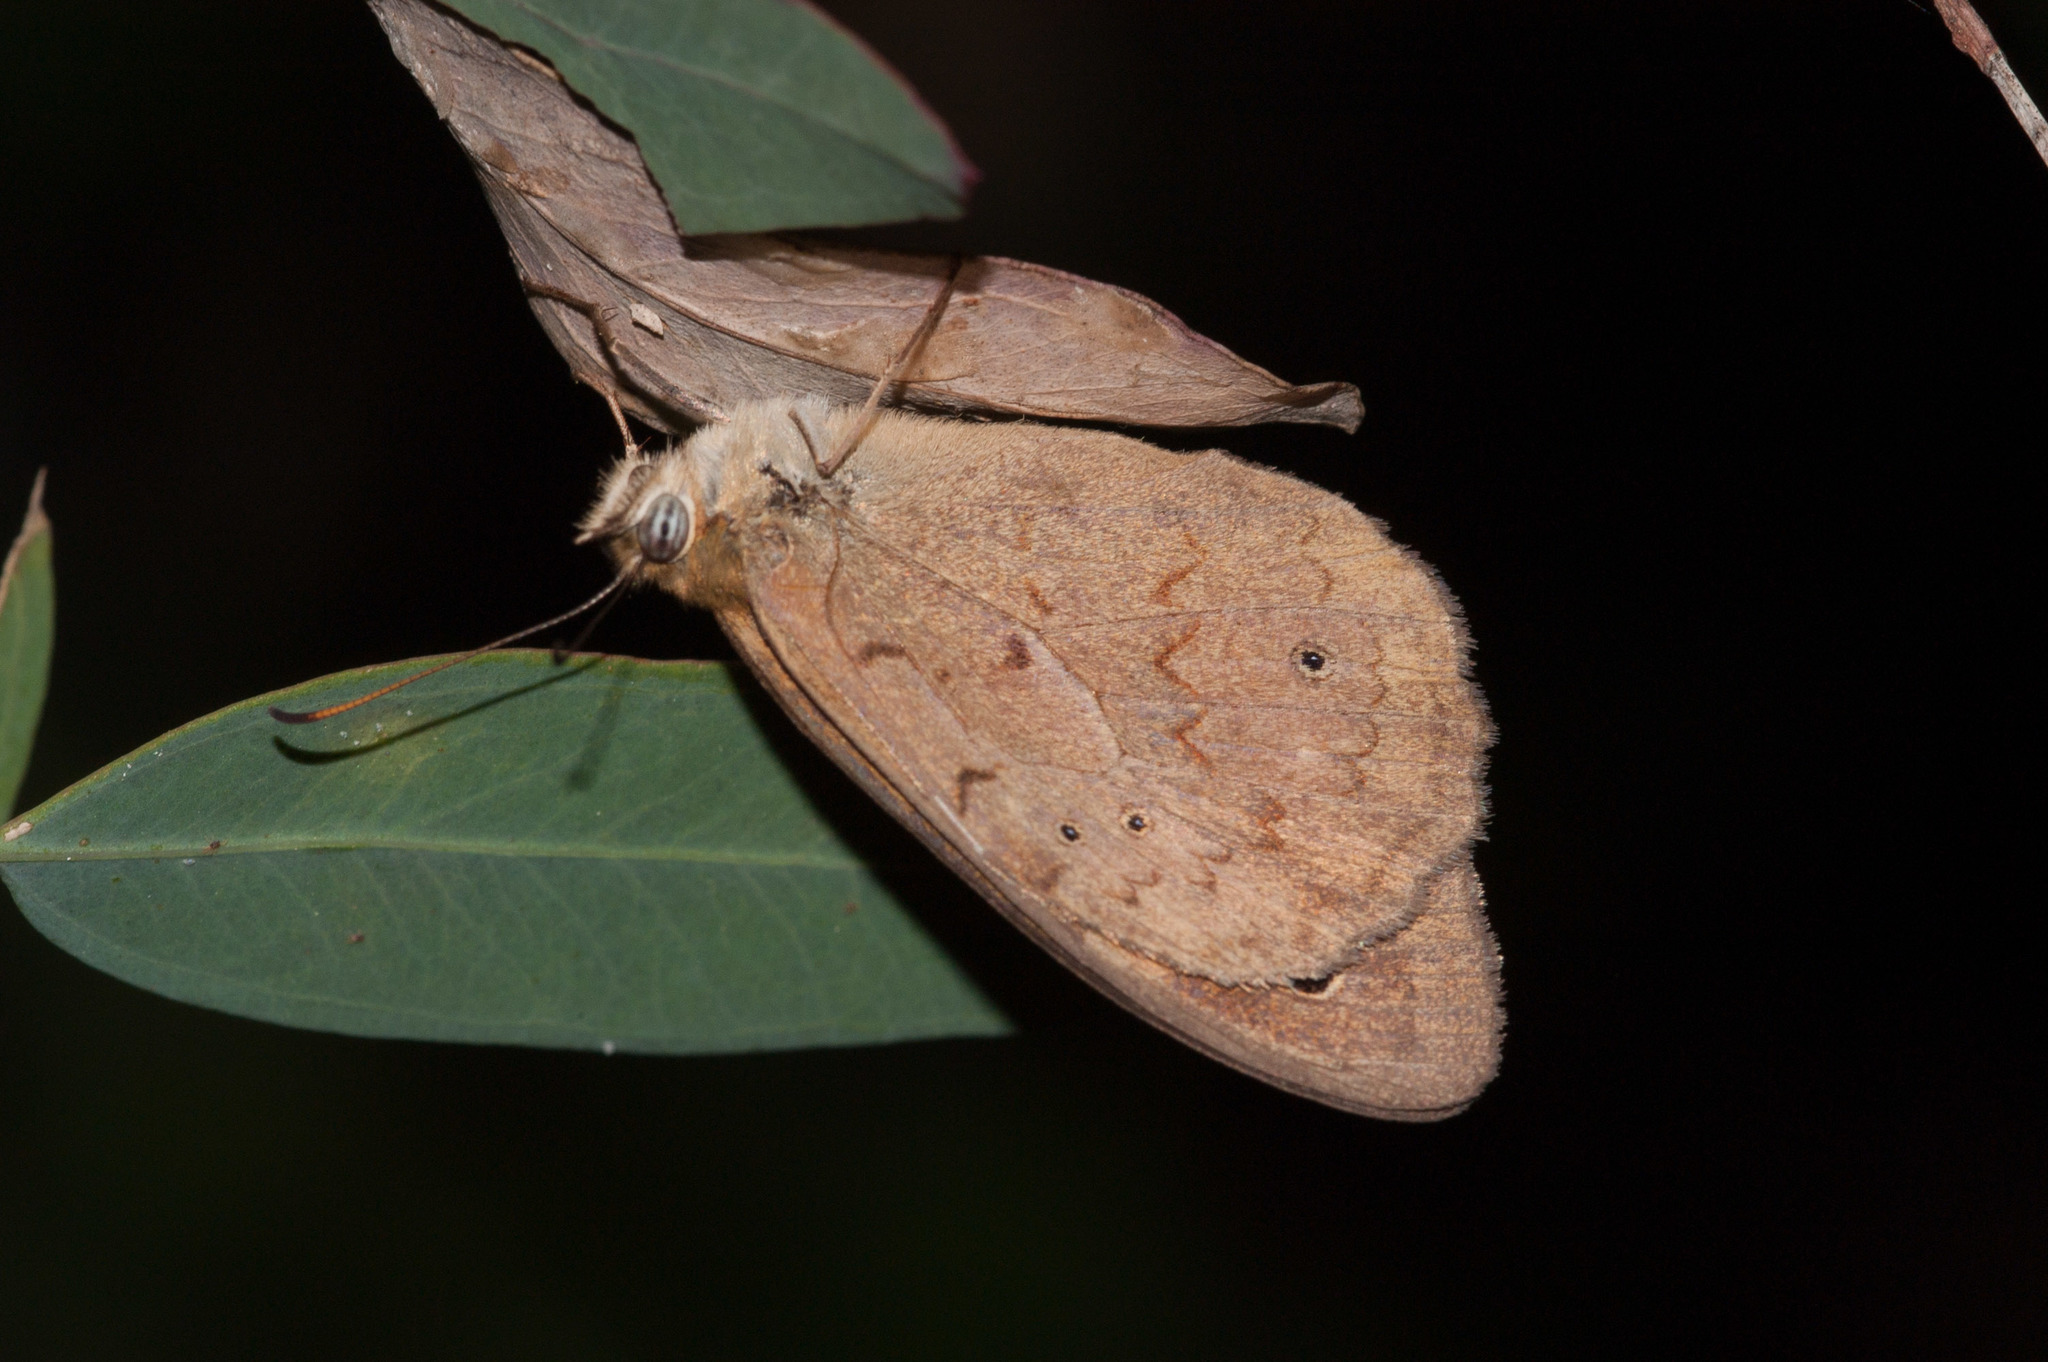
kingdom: Animalia
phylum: Arthropoda
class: Insecta
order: Lepidoptera
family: Nymphalidae
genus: Heteronympha
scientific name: Heteronympha merope
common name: Common brown
